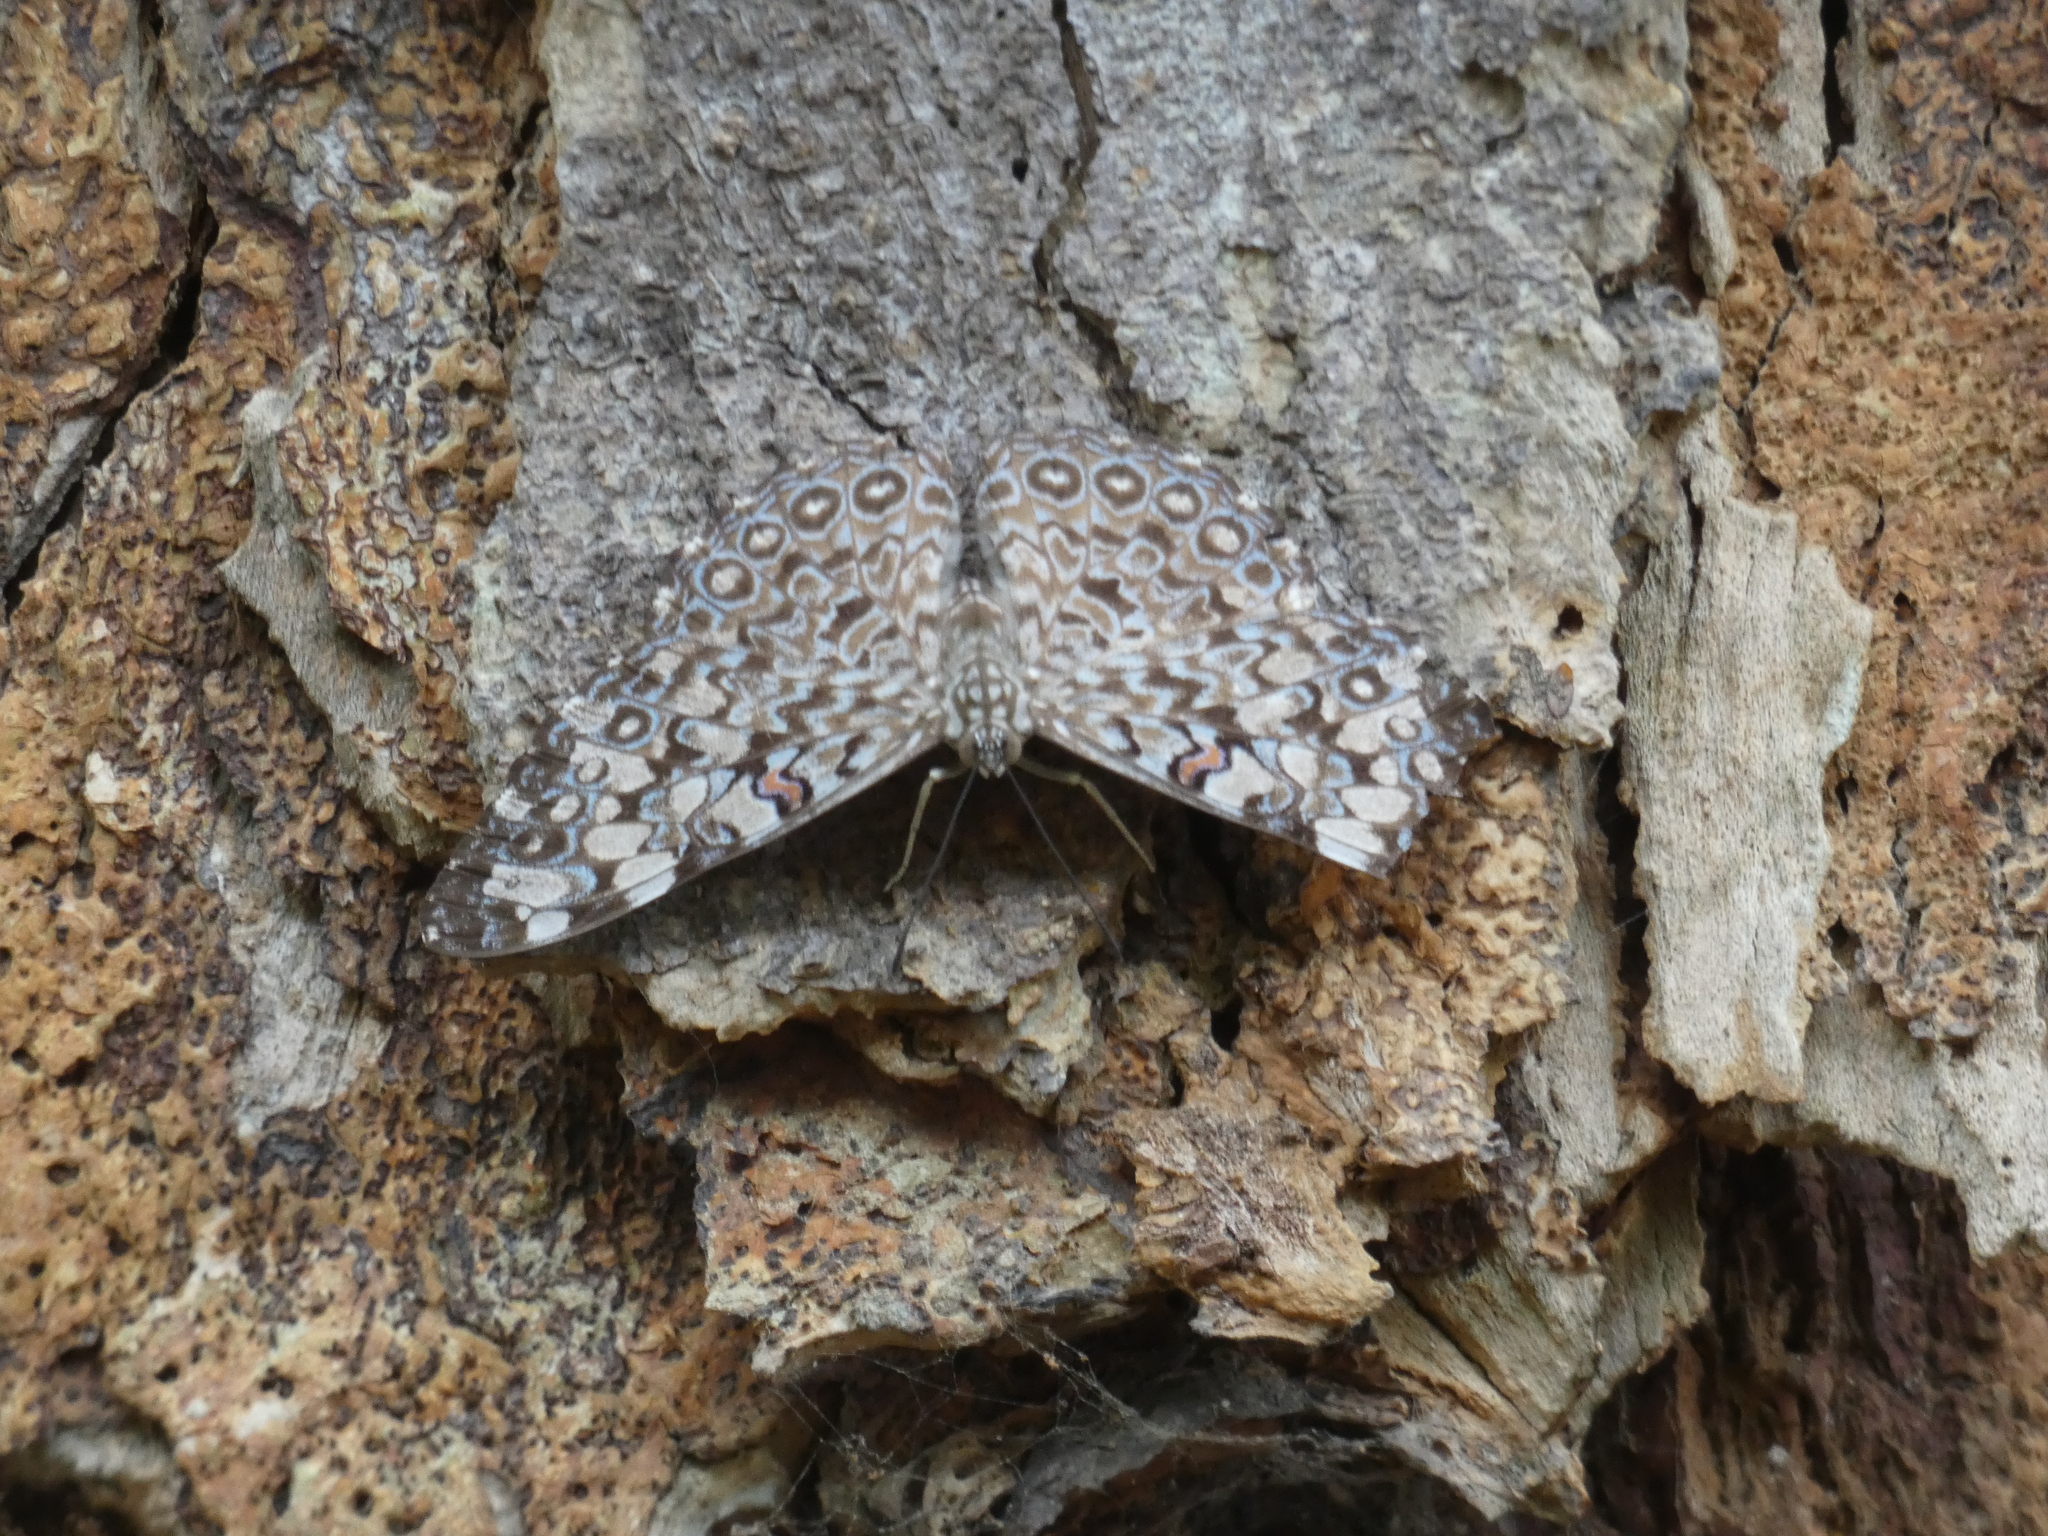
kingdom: Animalia
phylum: Arthropoda
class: Insecta
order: Lepidoptera
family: Nymphalidae
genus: Hamadryas
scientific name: Hamadryas feronia
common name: Variable cracker
